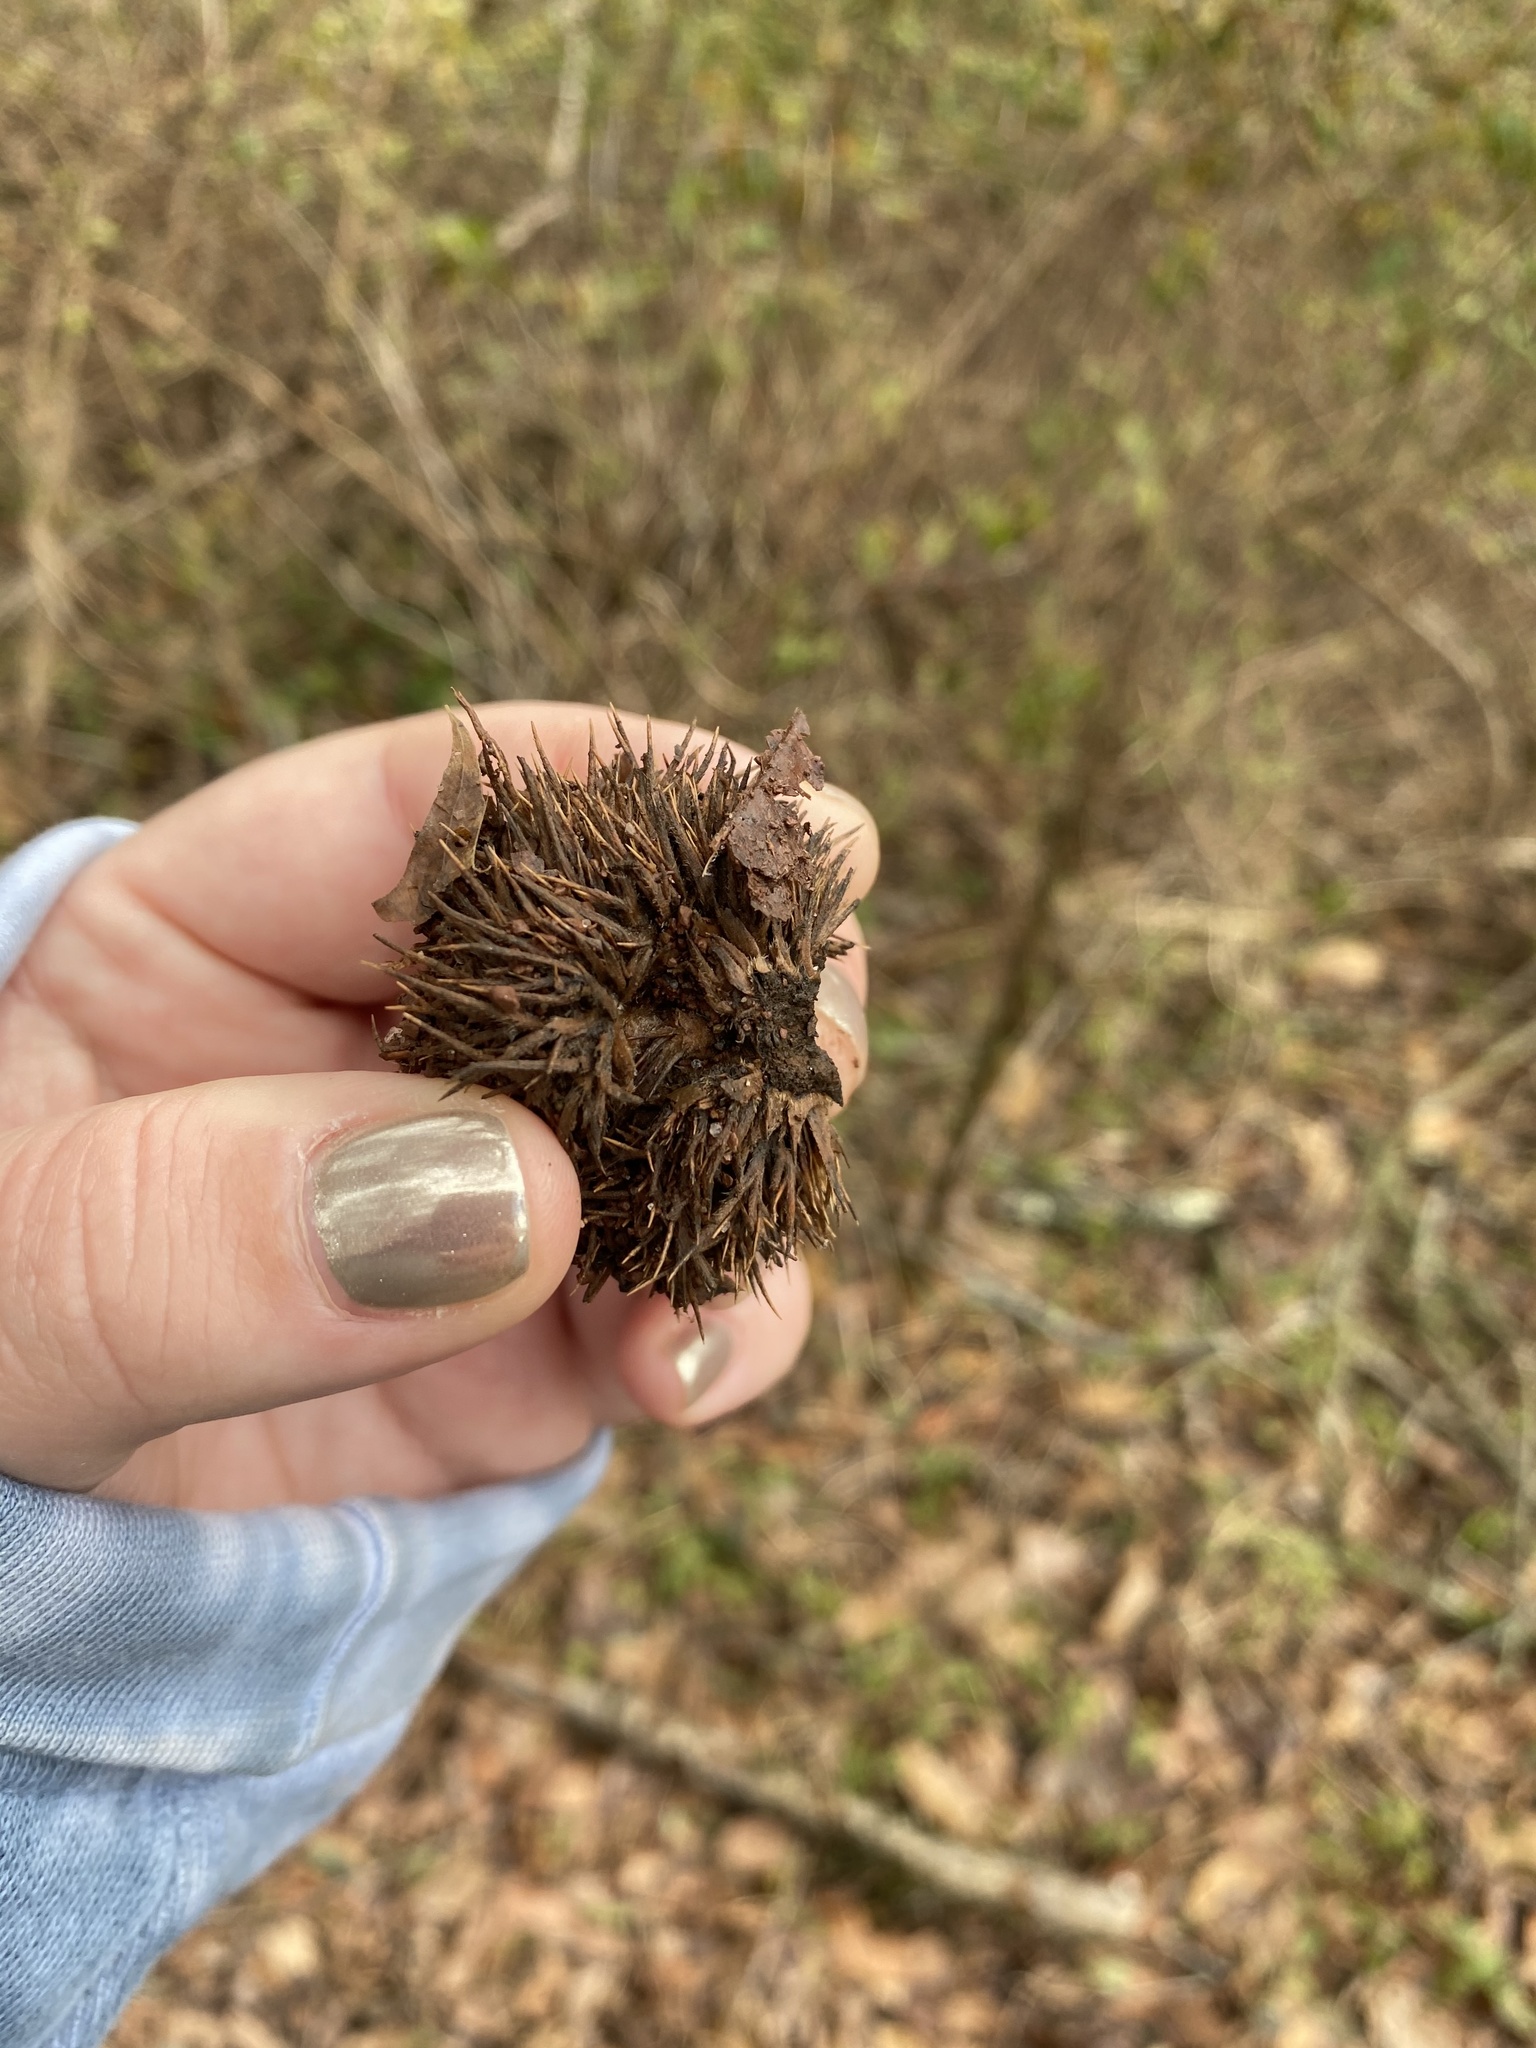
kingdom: Plantae
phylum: Tracheophyta
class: Magnoliopsida
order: Fagales
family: Fagaceae
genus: Castanea
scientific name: Castanea mollissima
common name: Chinese chestnut
